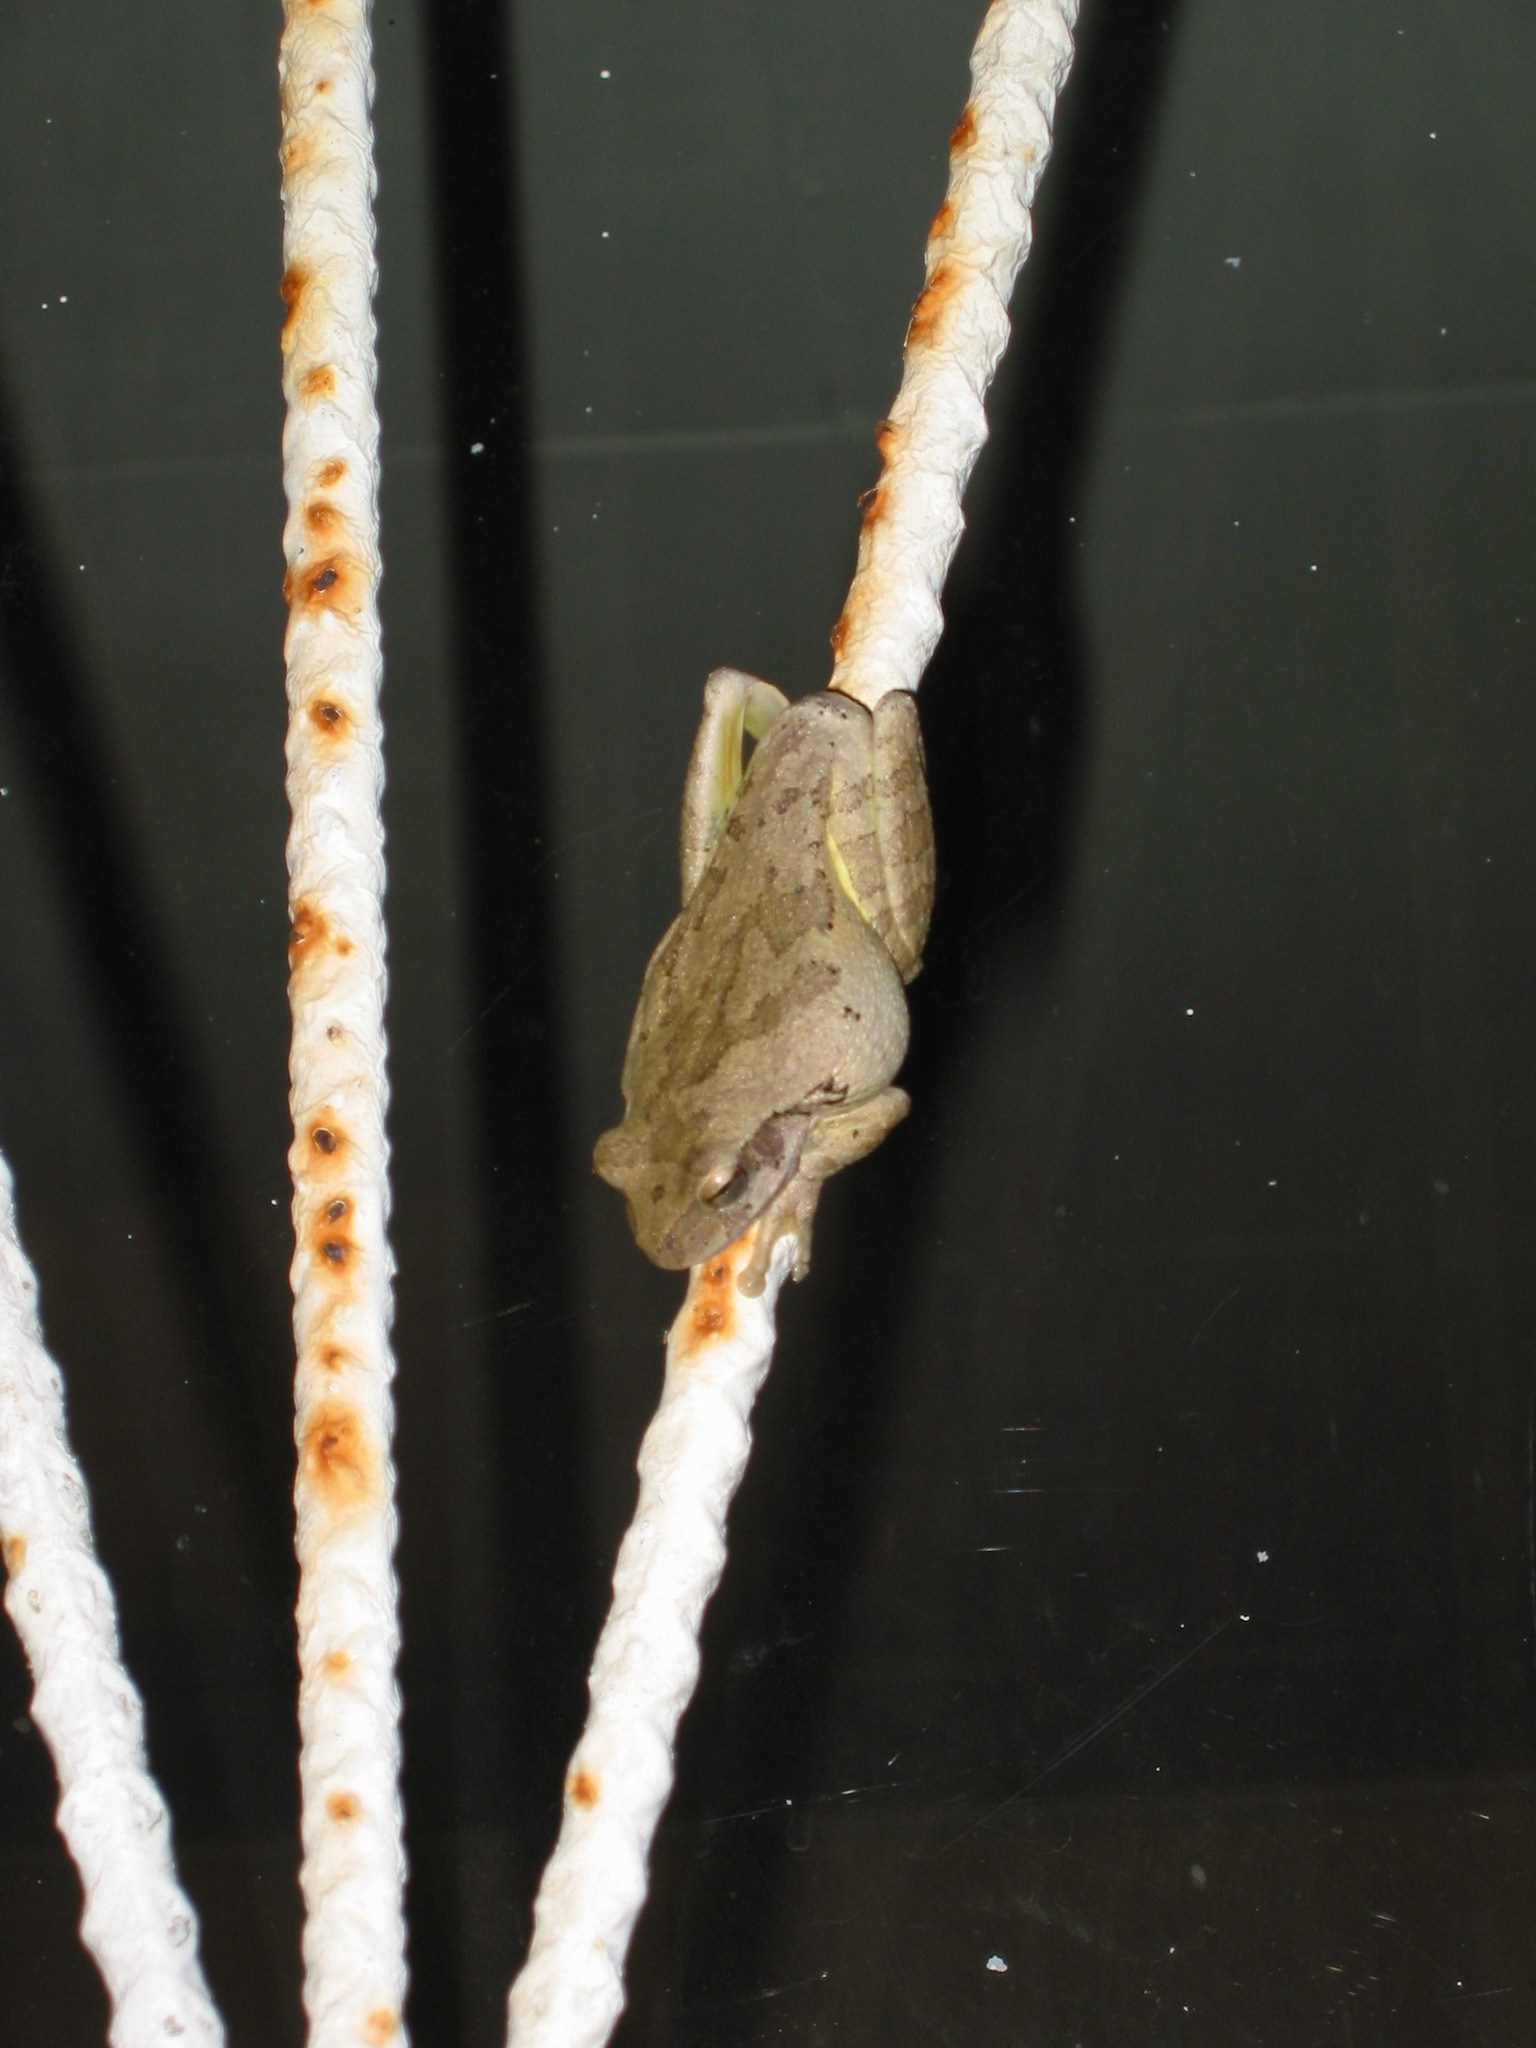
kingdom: Animalia
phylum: Chordata
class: Amphibia
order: Anura
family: Hylidae
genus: Smilisca
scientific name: Smilisca baudinii
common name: Mexican smilisca
